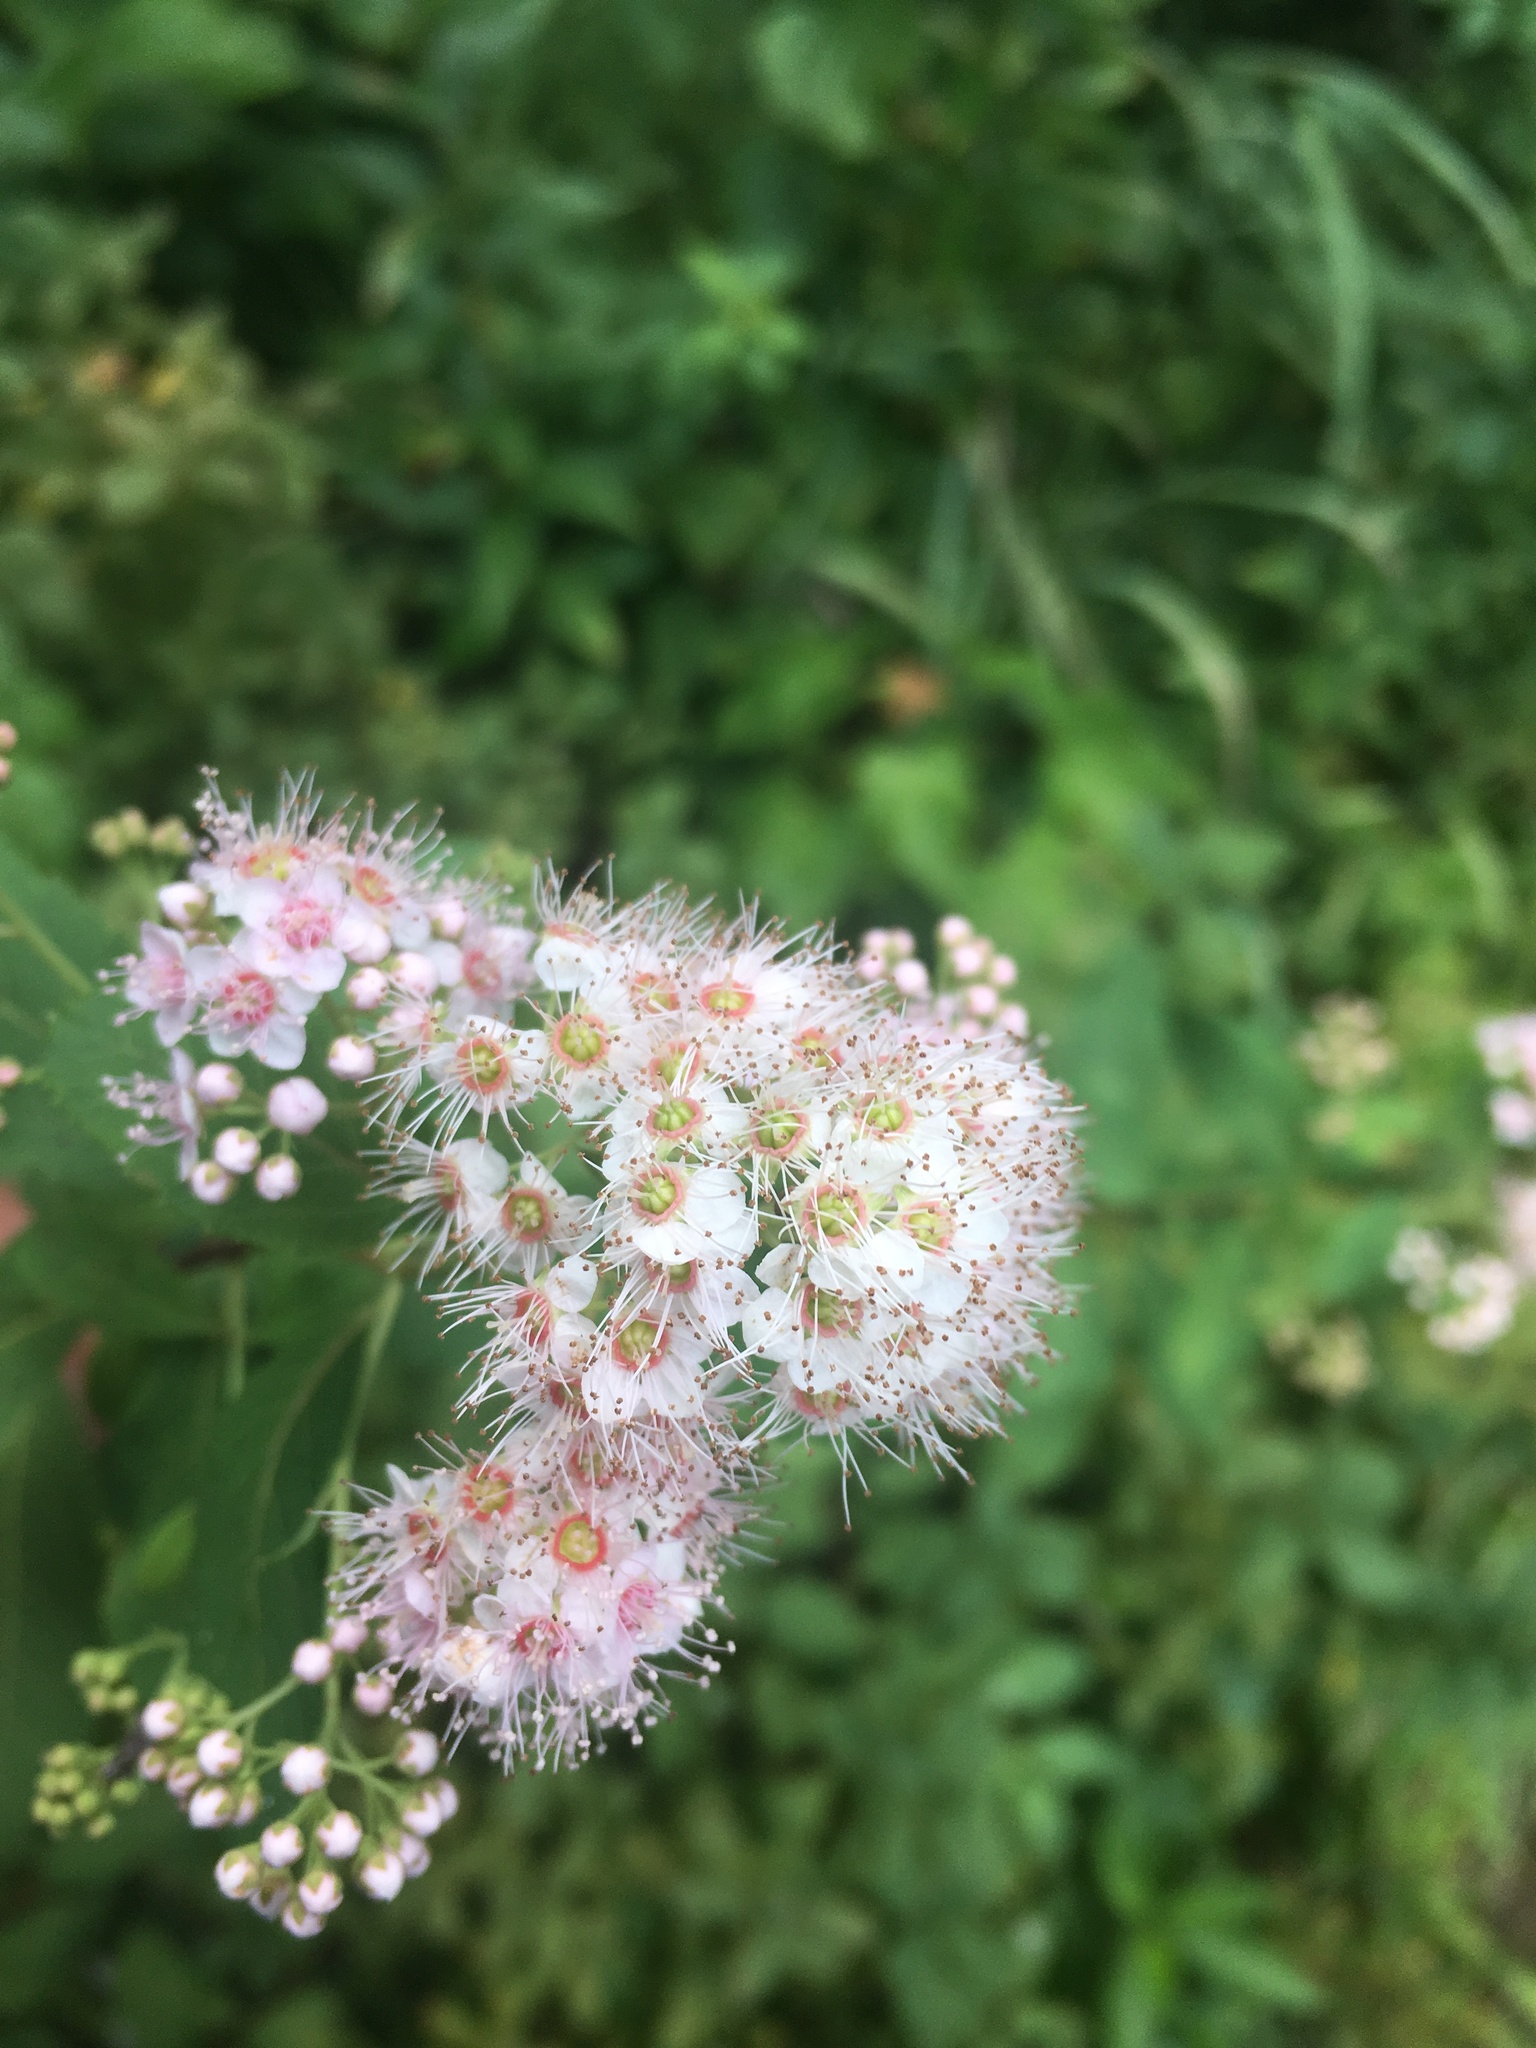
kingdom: Plantae
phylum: Tracheophyta
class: Magnoliopsida
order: Rosales
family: Rosaceae
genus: Spiraea
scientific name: Spiraea alba
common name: Pale bridewort
